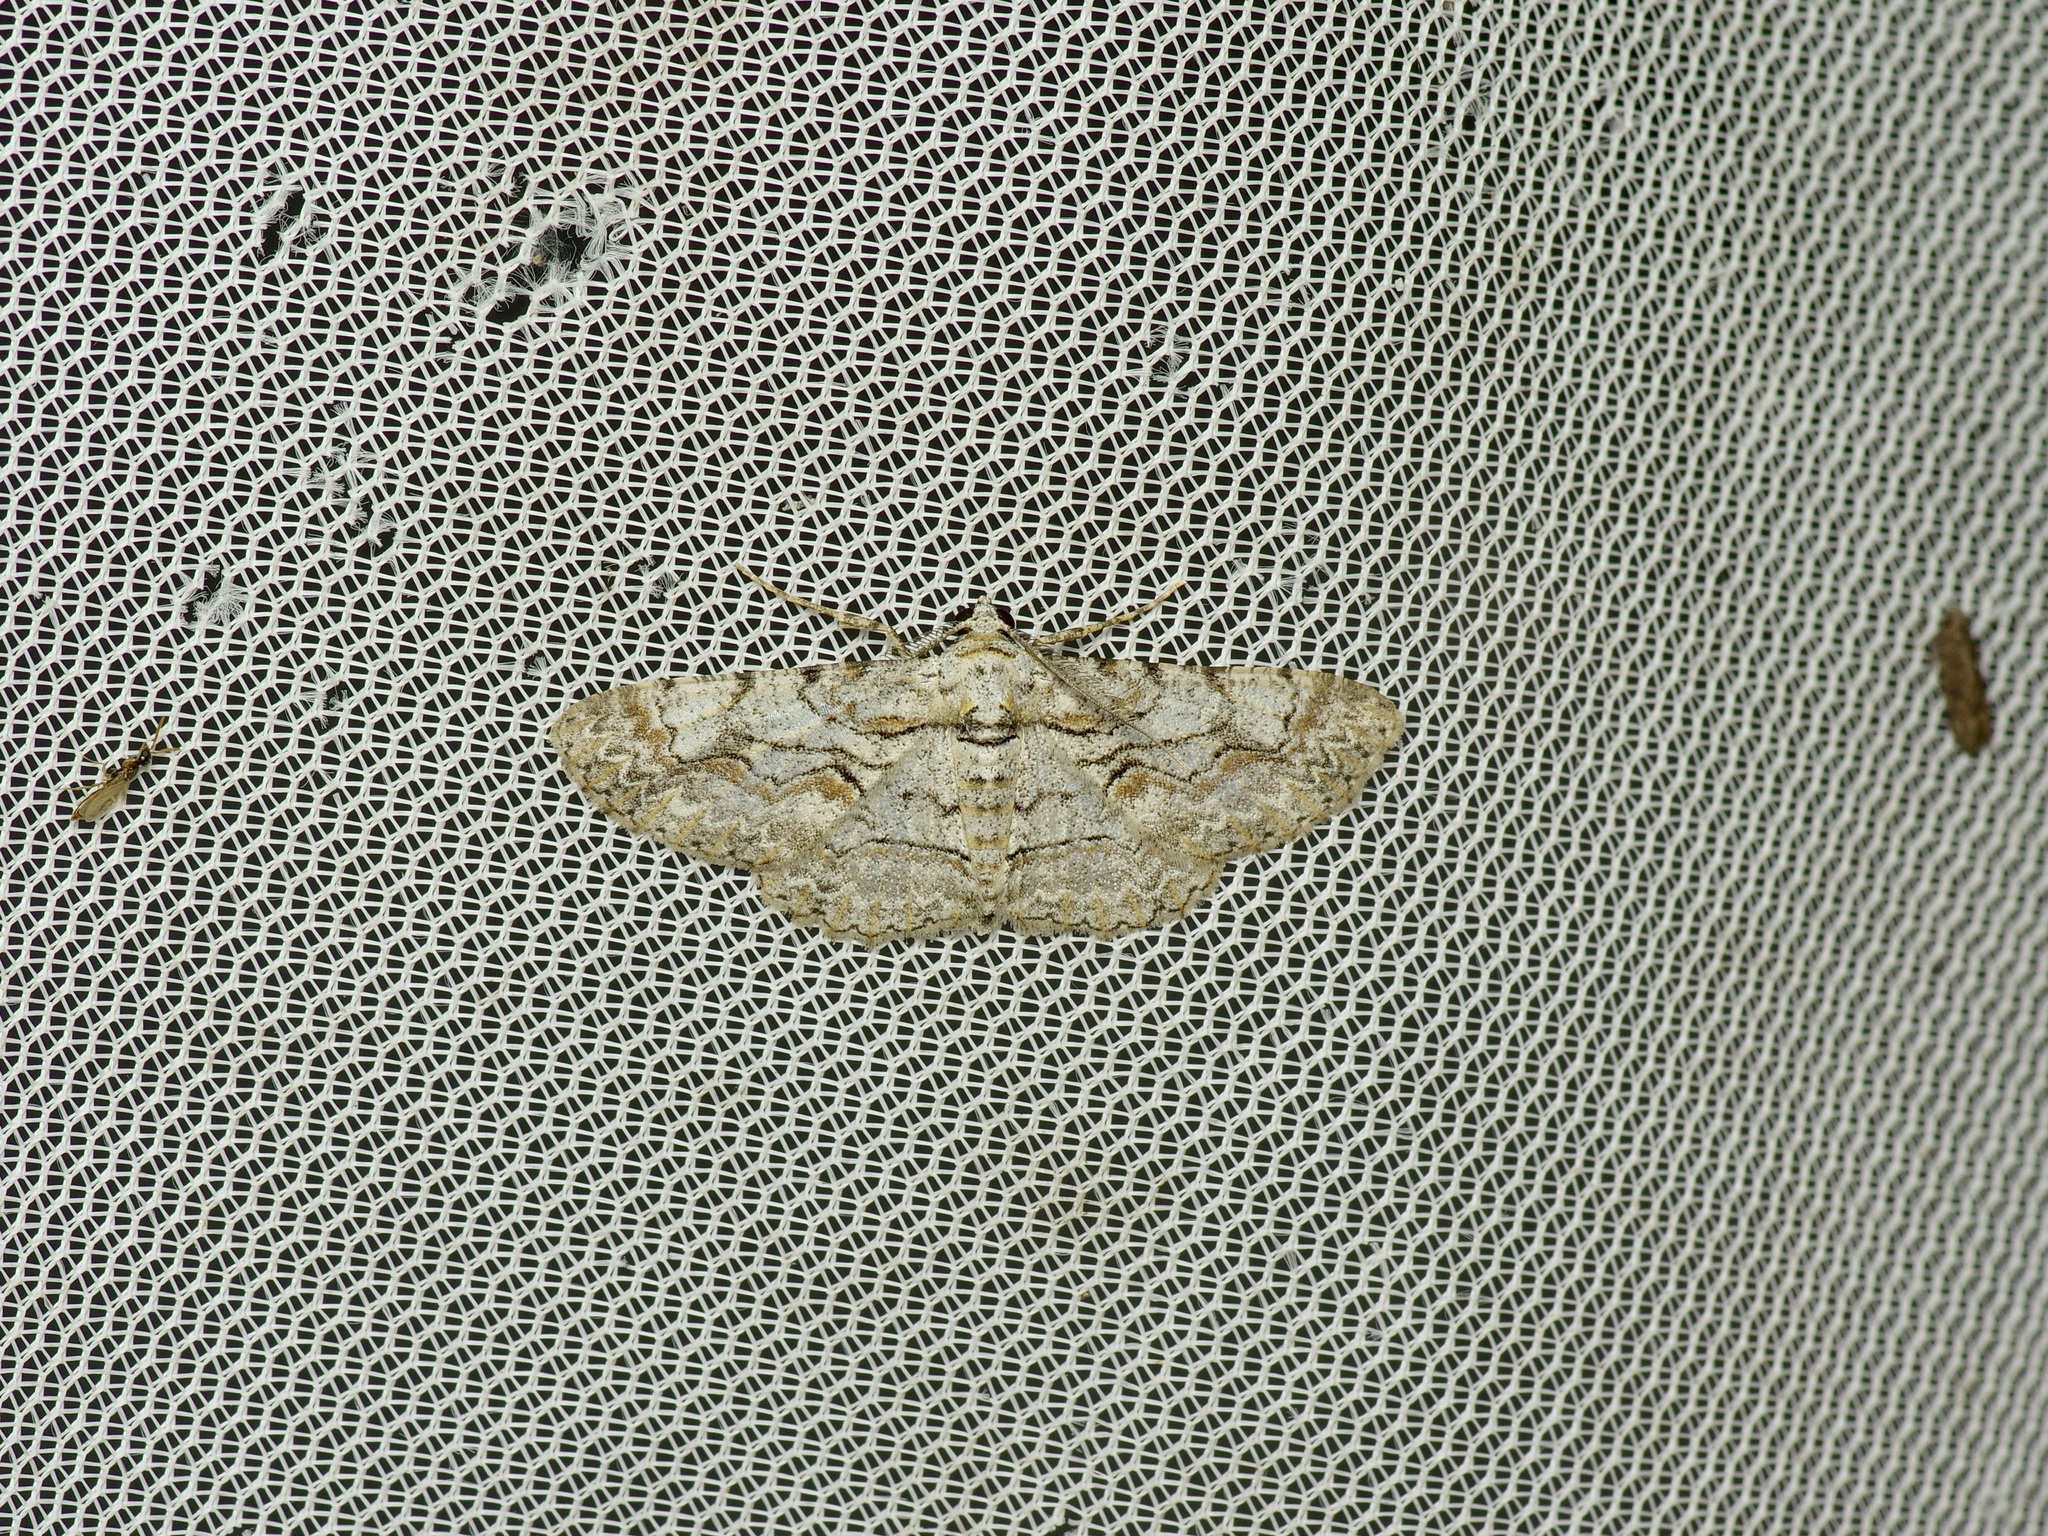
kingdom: Animalia
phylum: Arthropoda
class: Insecta
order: Lepidoptera
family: Geometridae
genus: Iridopsis
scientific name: Iridopsis defectaria
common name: Brown-shaded gray
